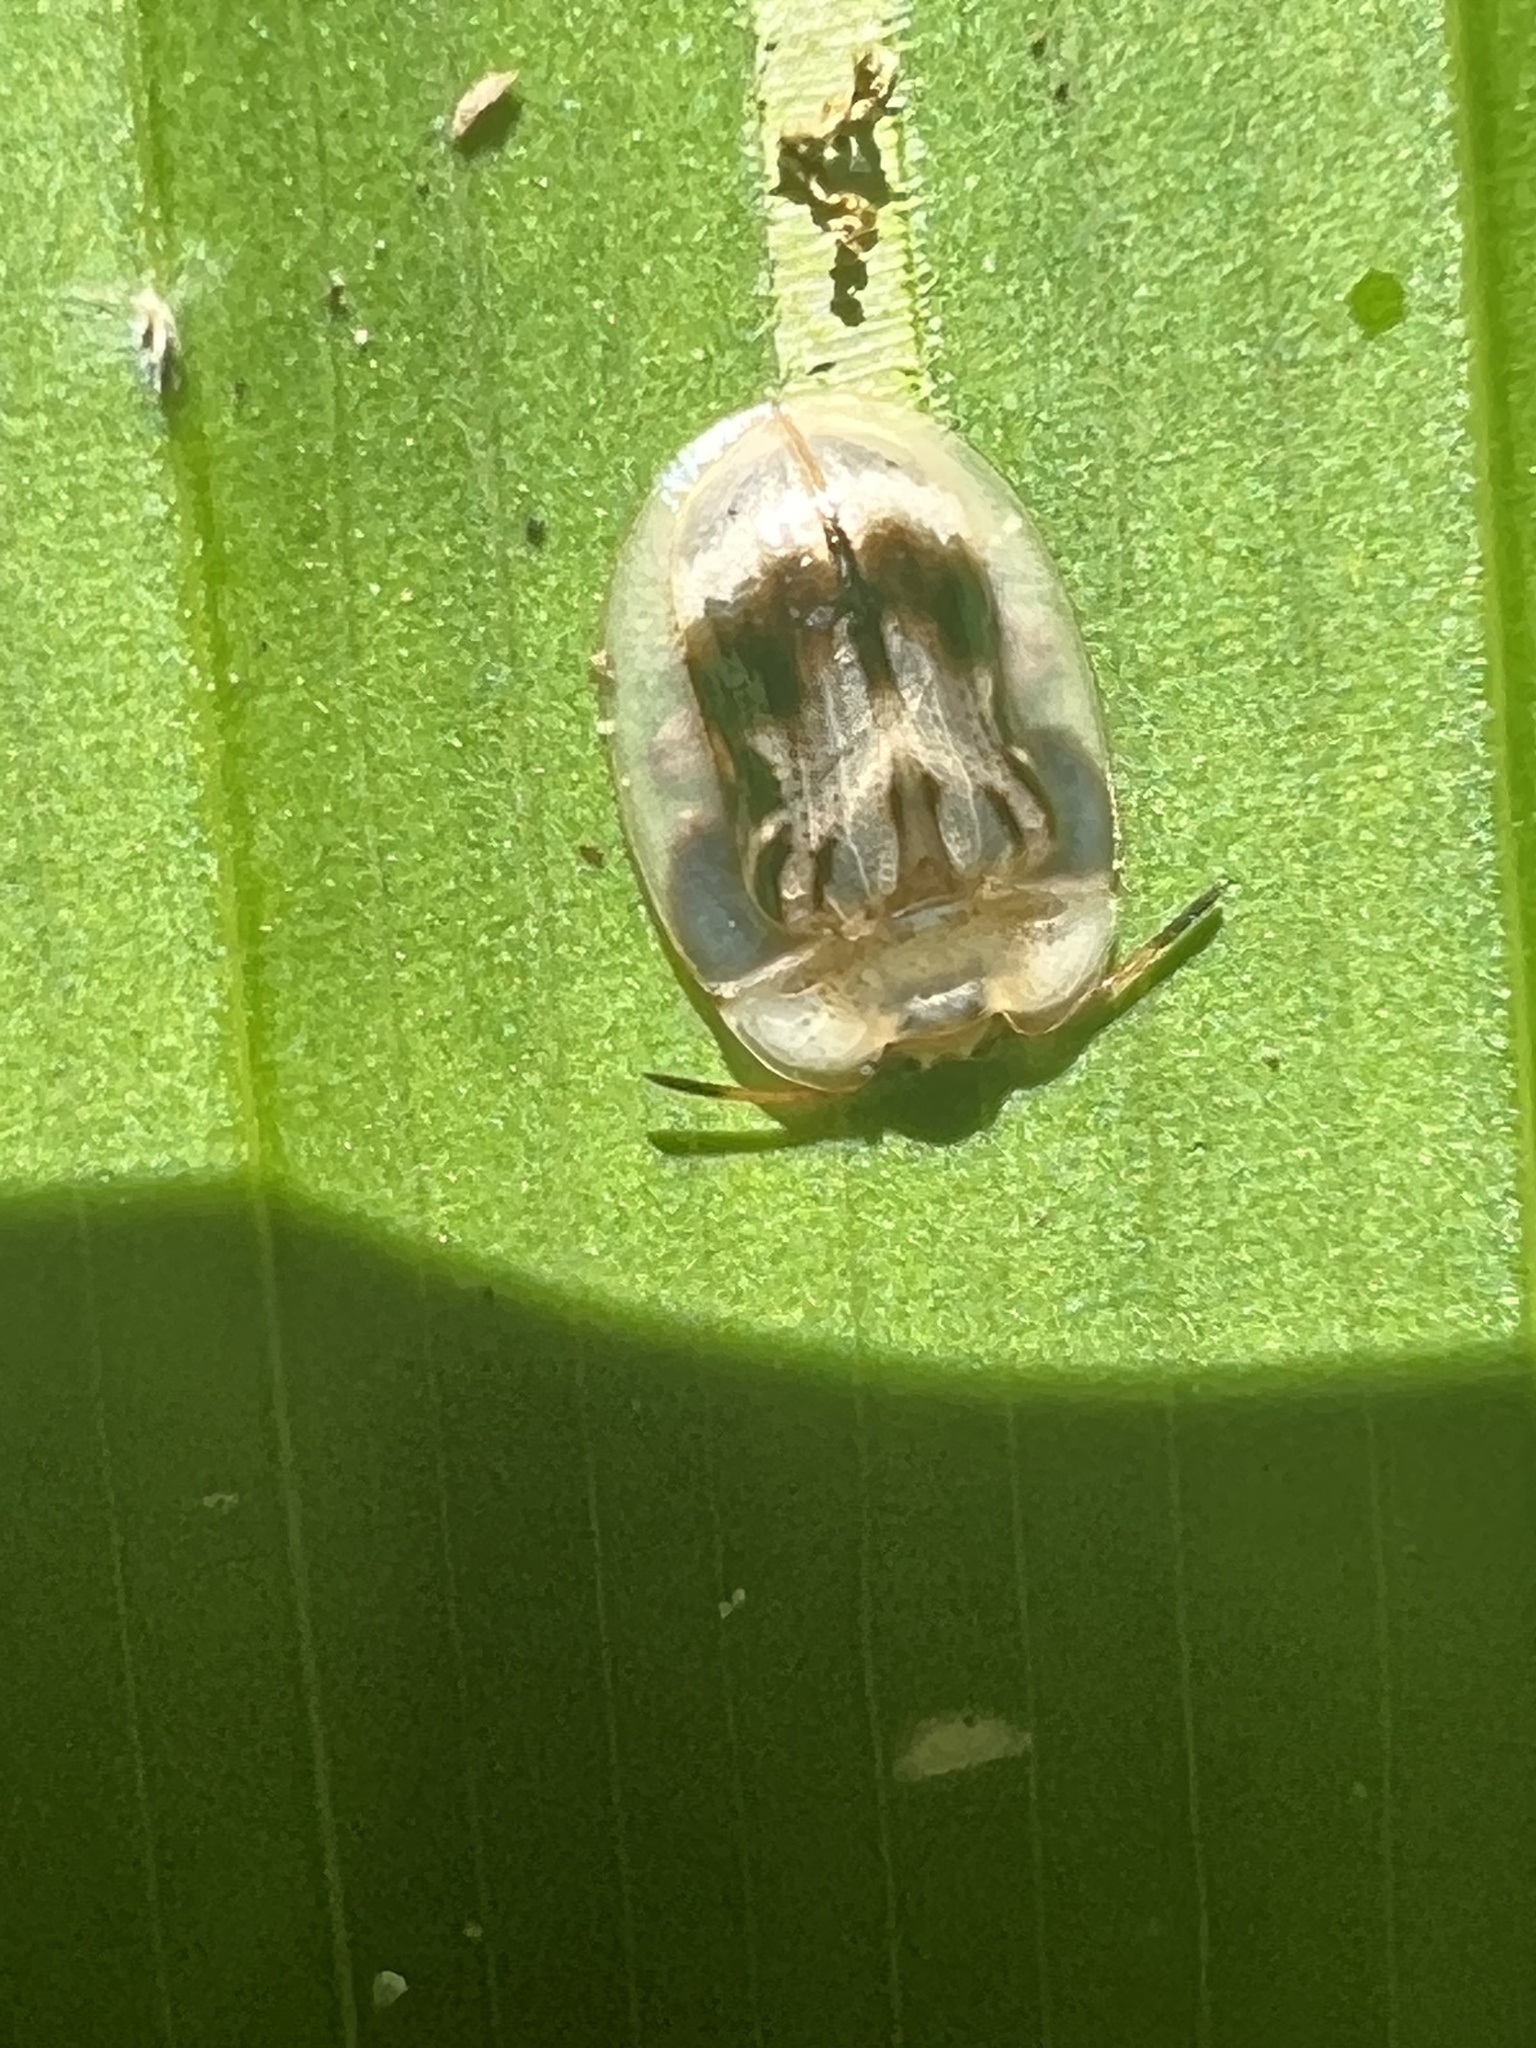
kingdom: Animalia
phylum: Arthropoda
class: Insecta
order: Coleoptera
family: Chrysomelidae
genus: Aslamidium
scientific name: Aslamidium impurum
